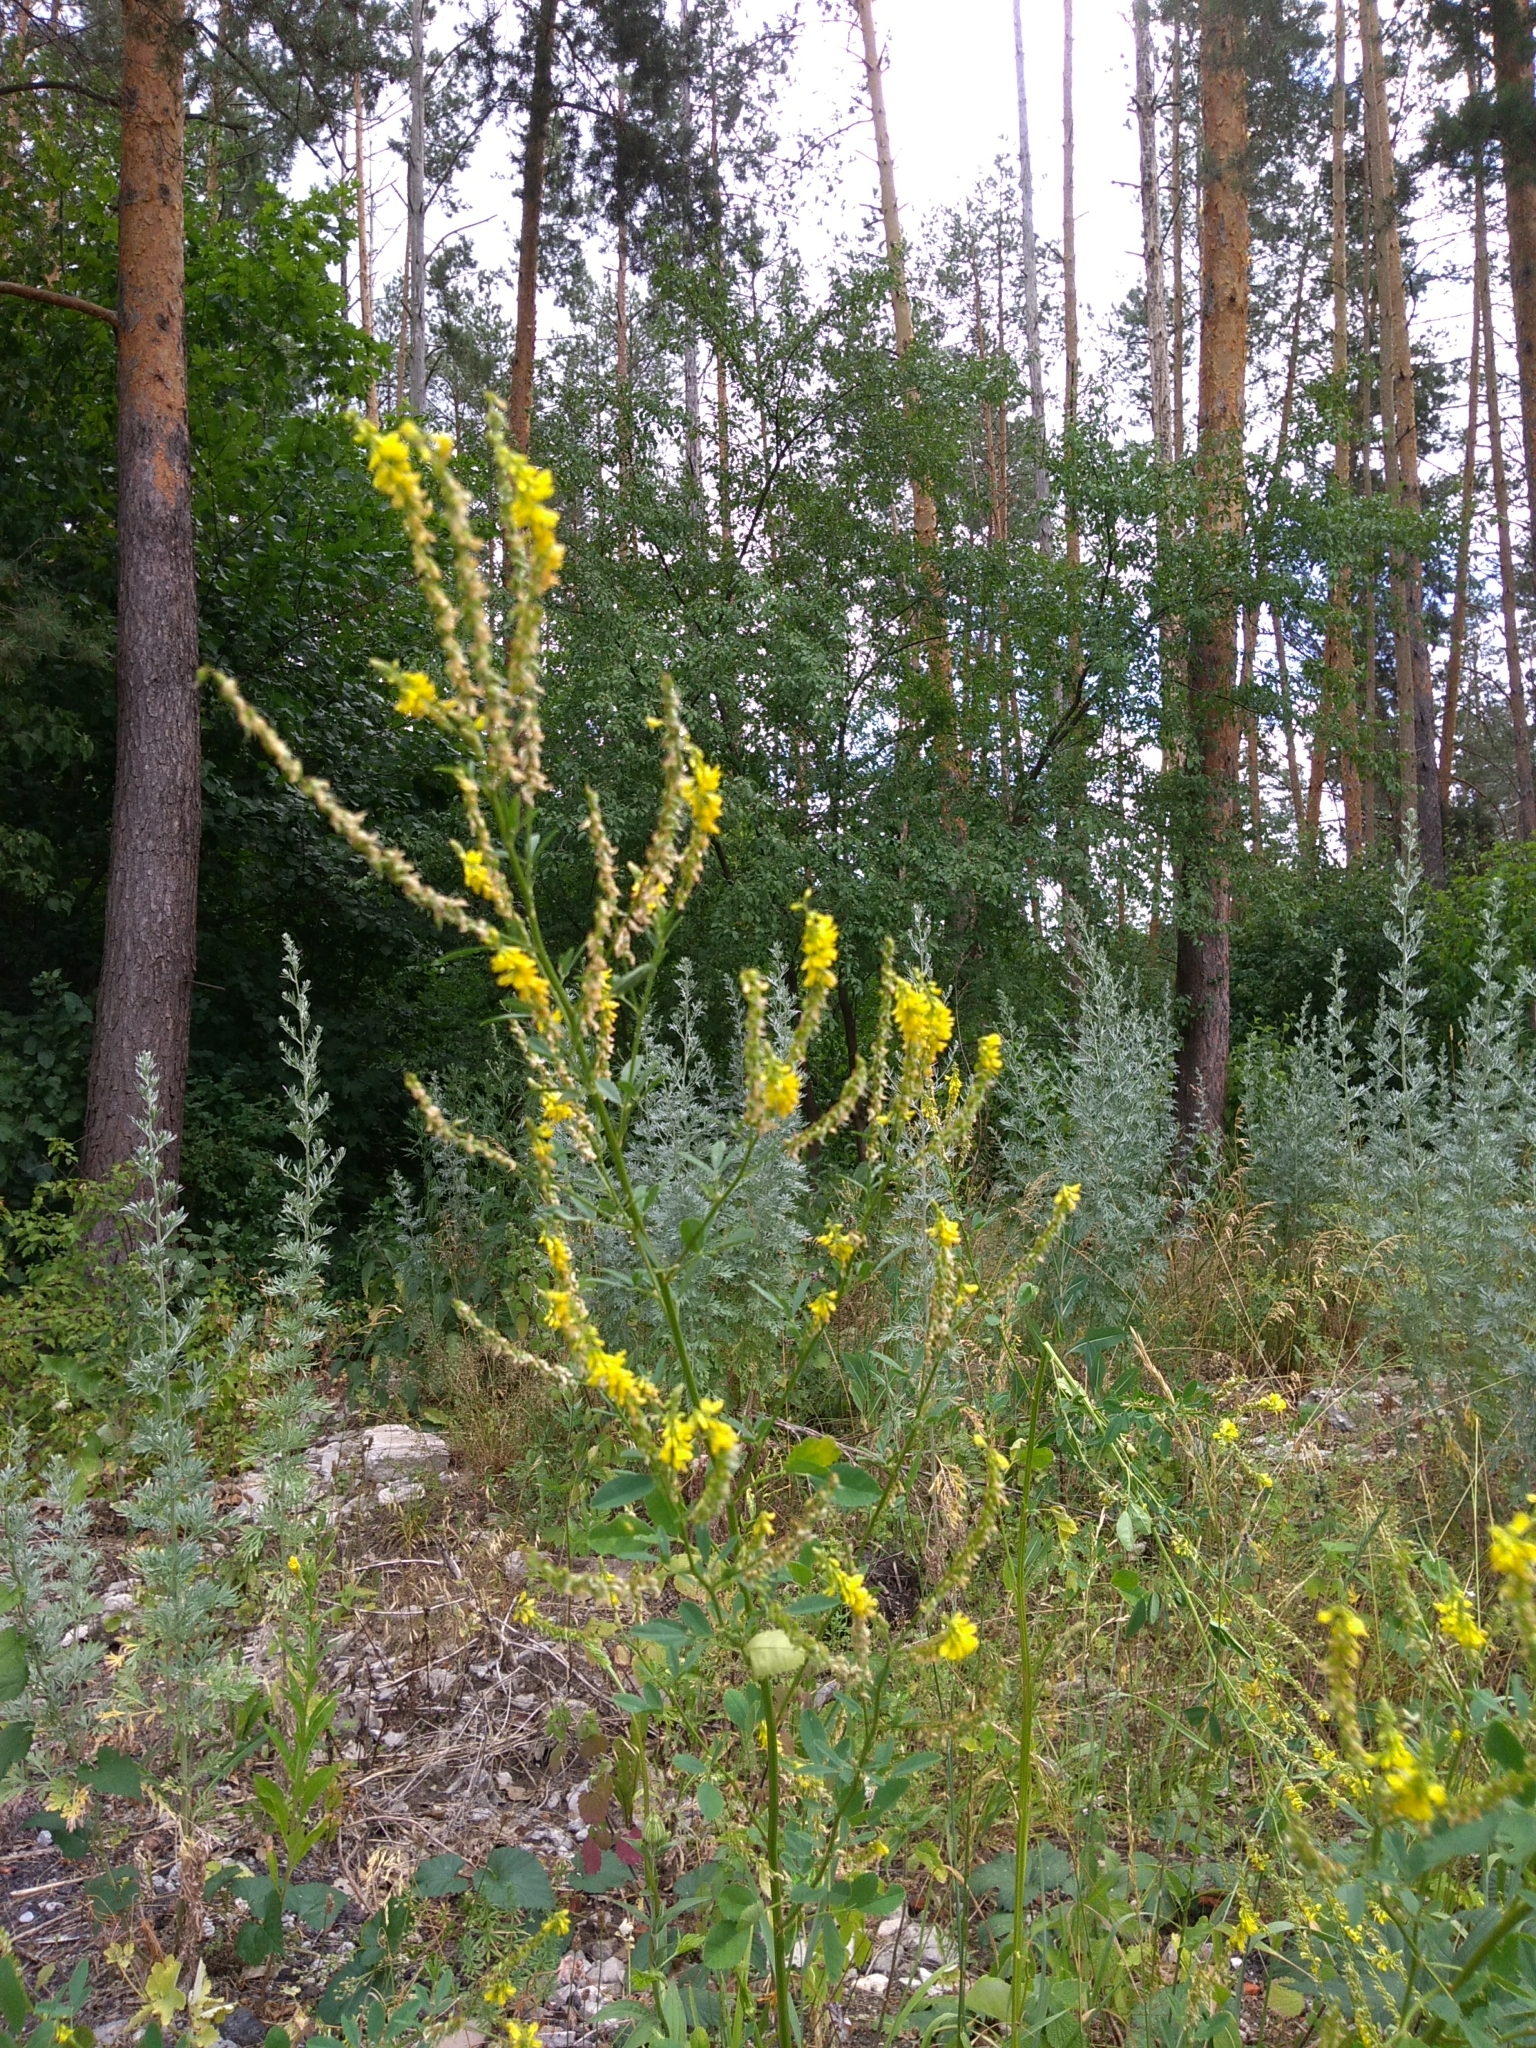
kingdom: Plantae
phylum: Tracheophyta
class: Magnoliopsida
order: Fabales
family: Fabaceae
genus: Melilotus
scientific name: Melilotus officinalis
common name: Sweetclover
